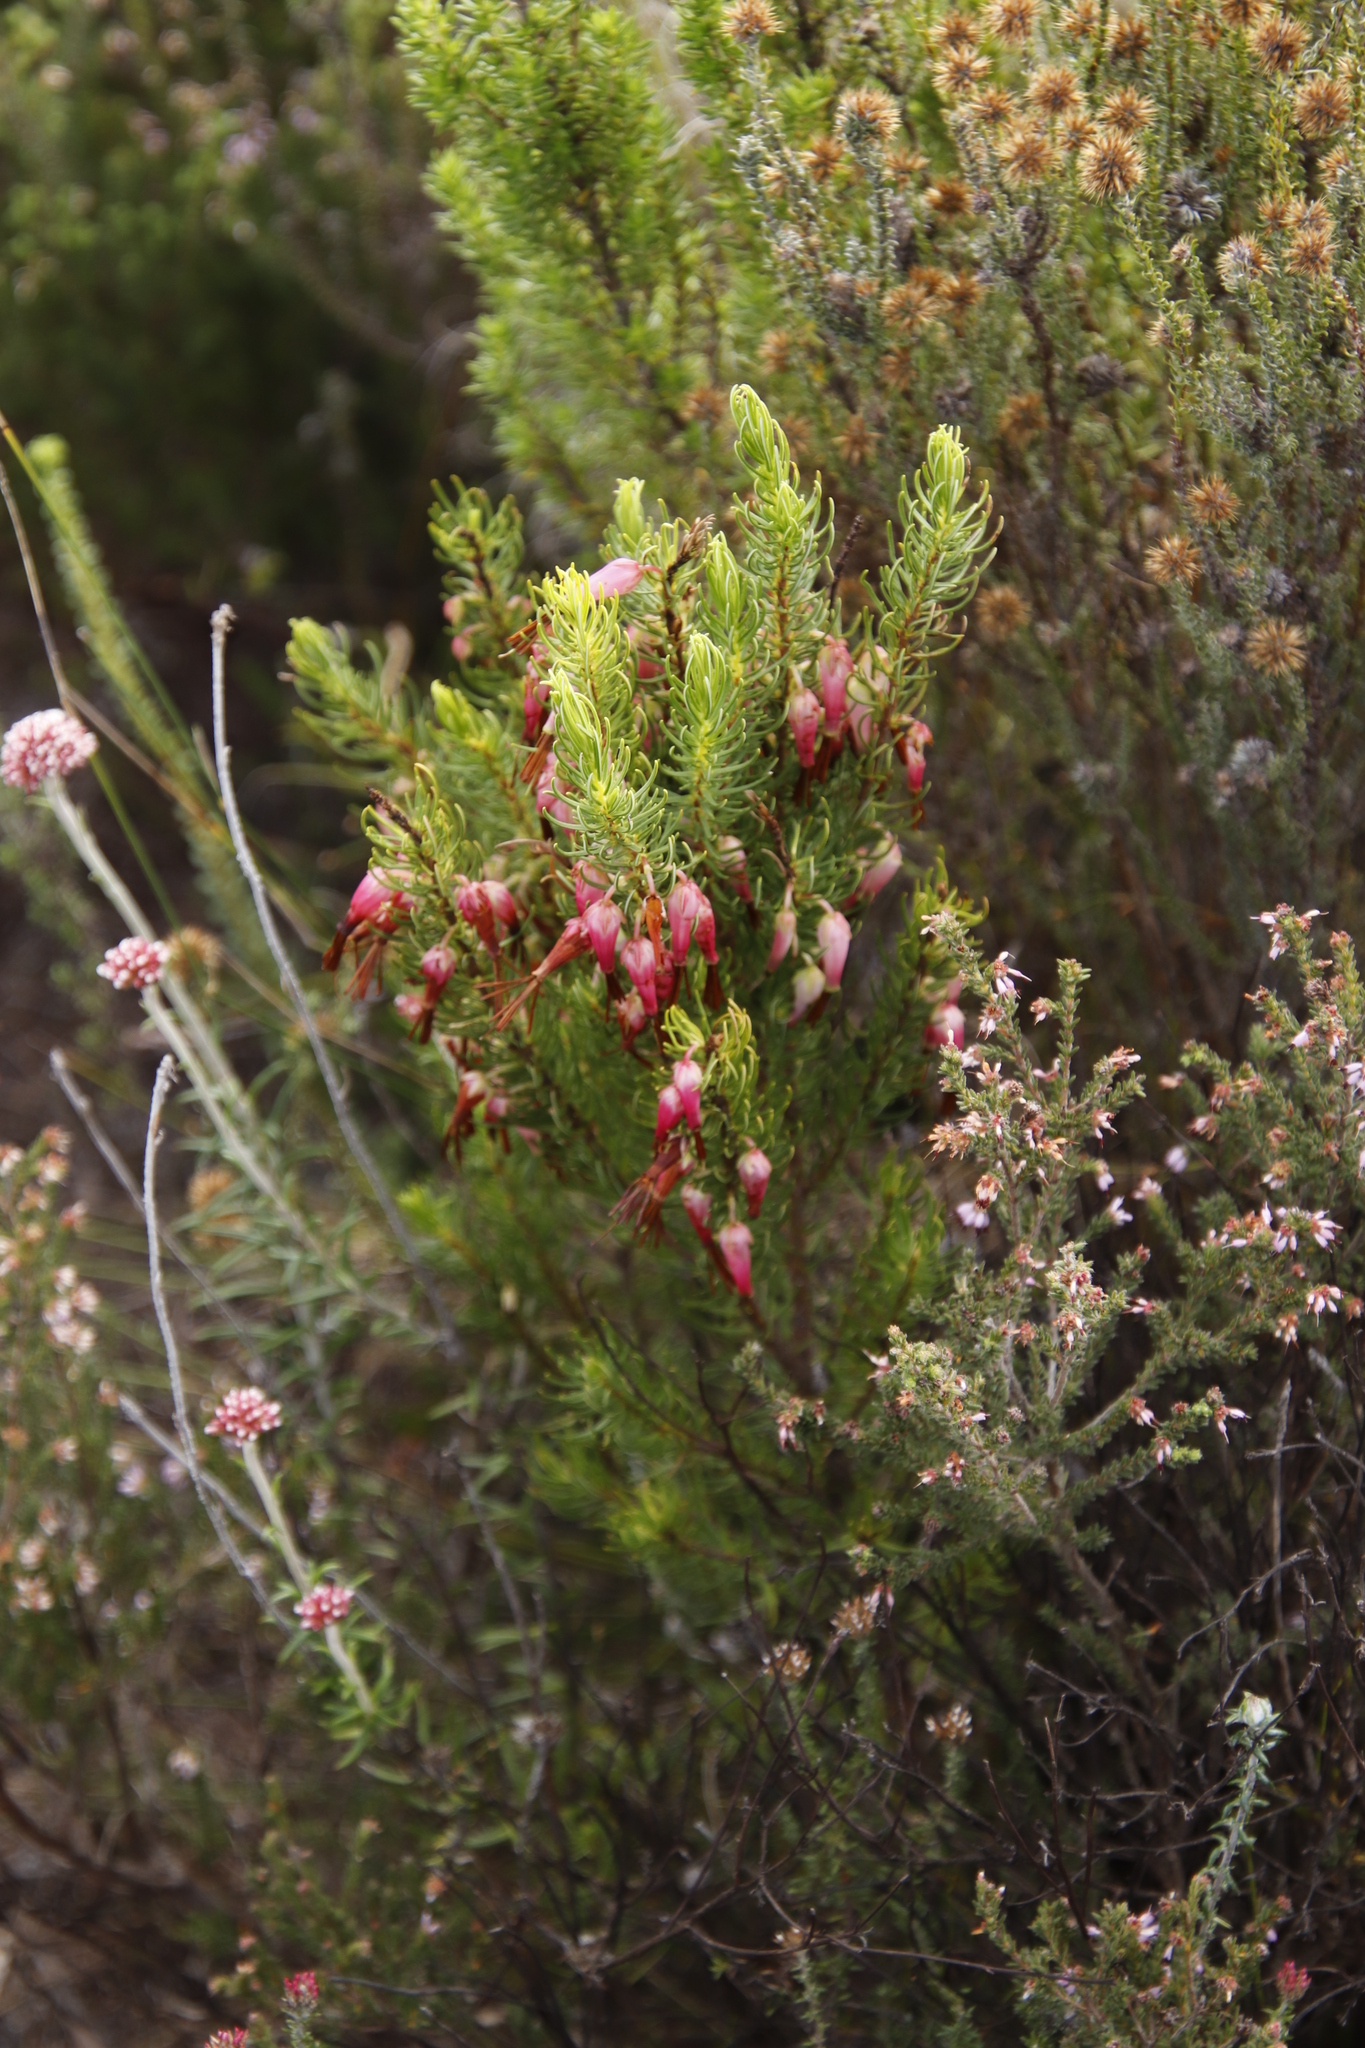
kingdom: Plantae
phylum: Tracheophyta
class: Magnoliopsida
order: Ericales
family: Ericaceae
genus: Erica
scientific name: Erica plukenetii
